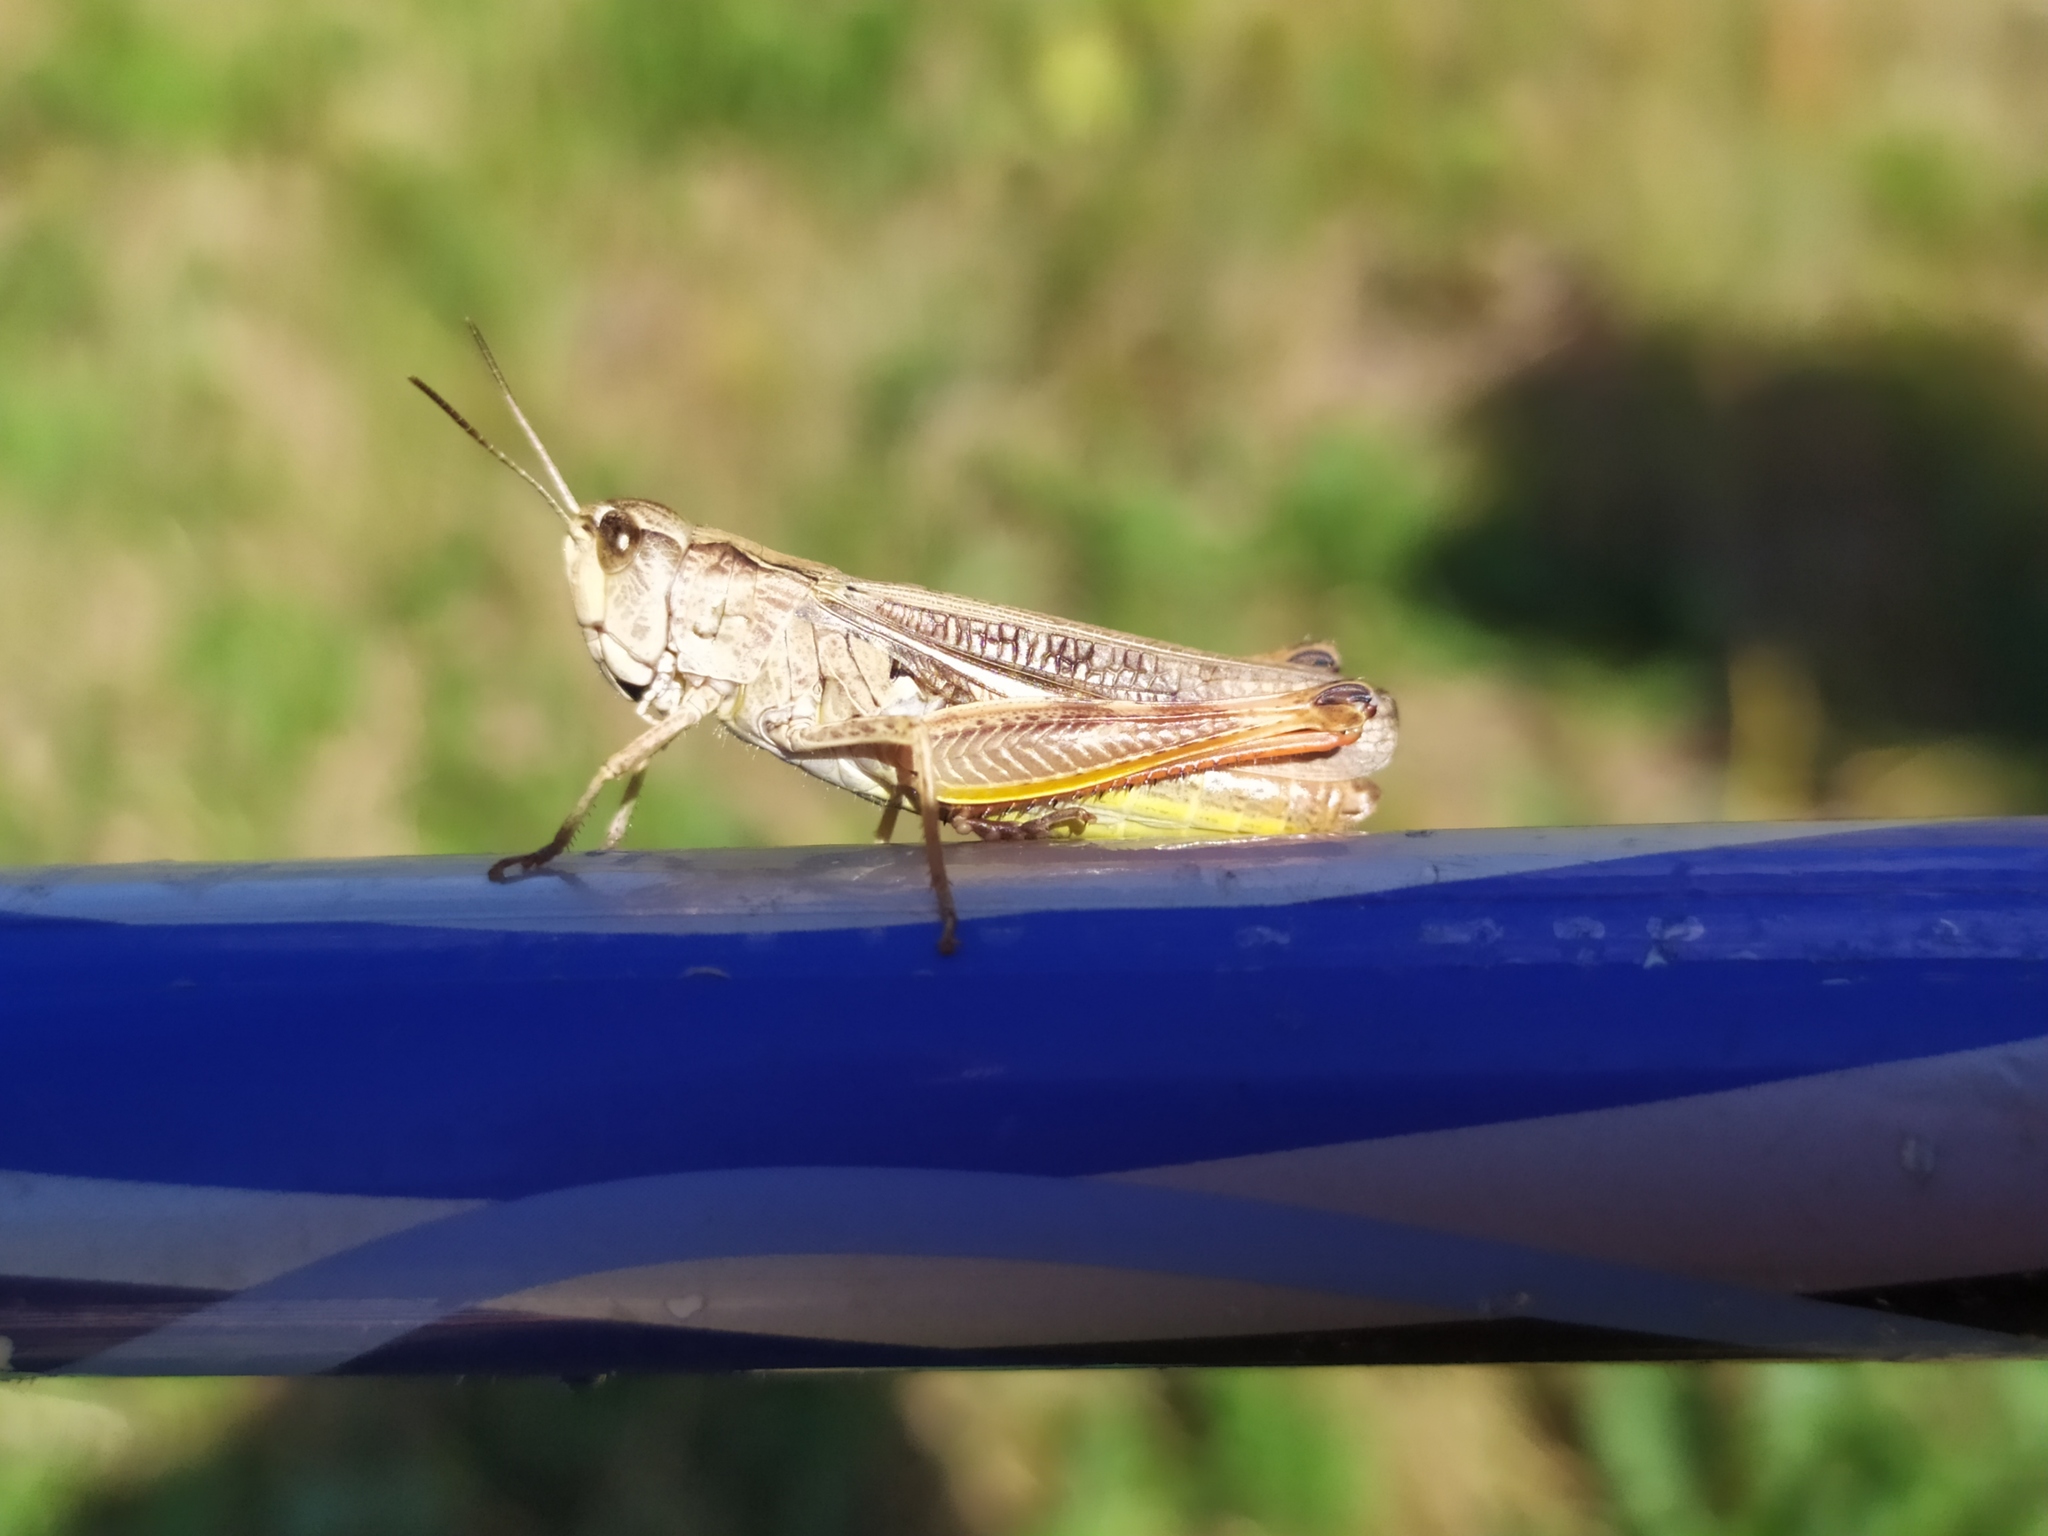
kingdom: Animalia
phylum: Arthropoda
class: Insecta
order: Orthoptera
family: Acrididae
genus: Stauroderus
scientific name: Stauroderus scalaris
